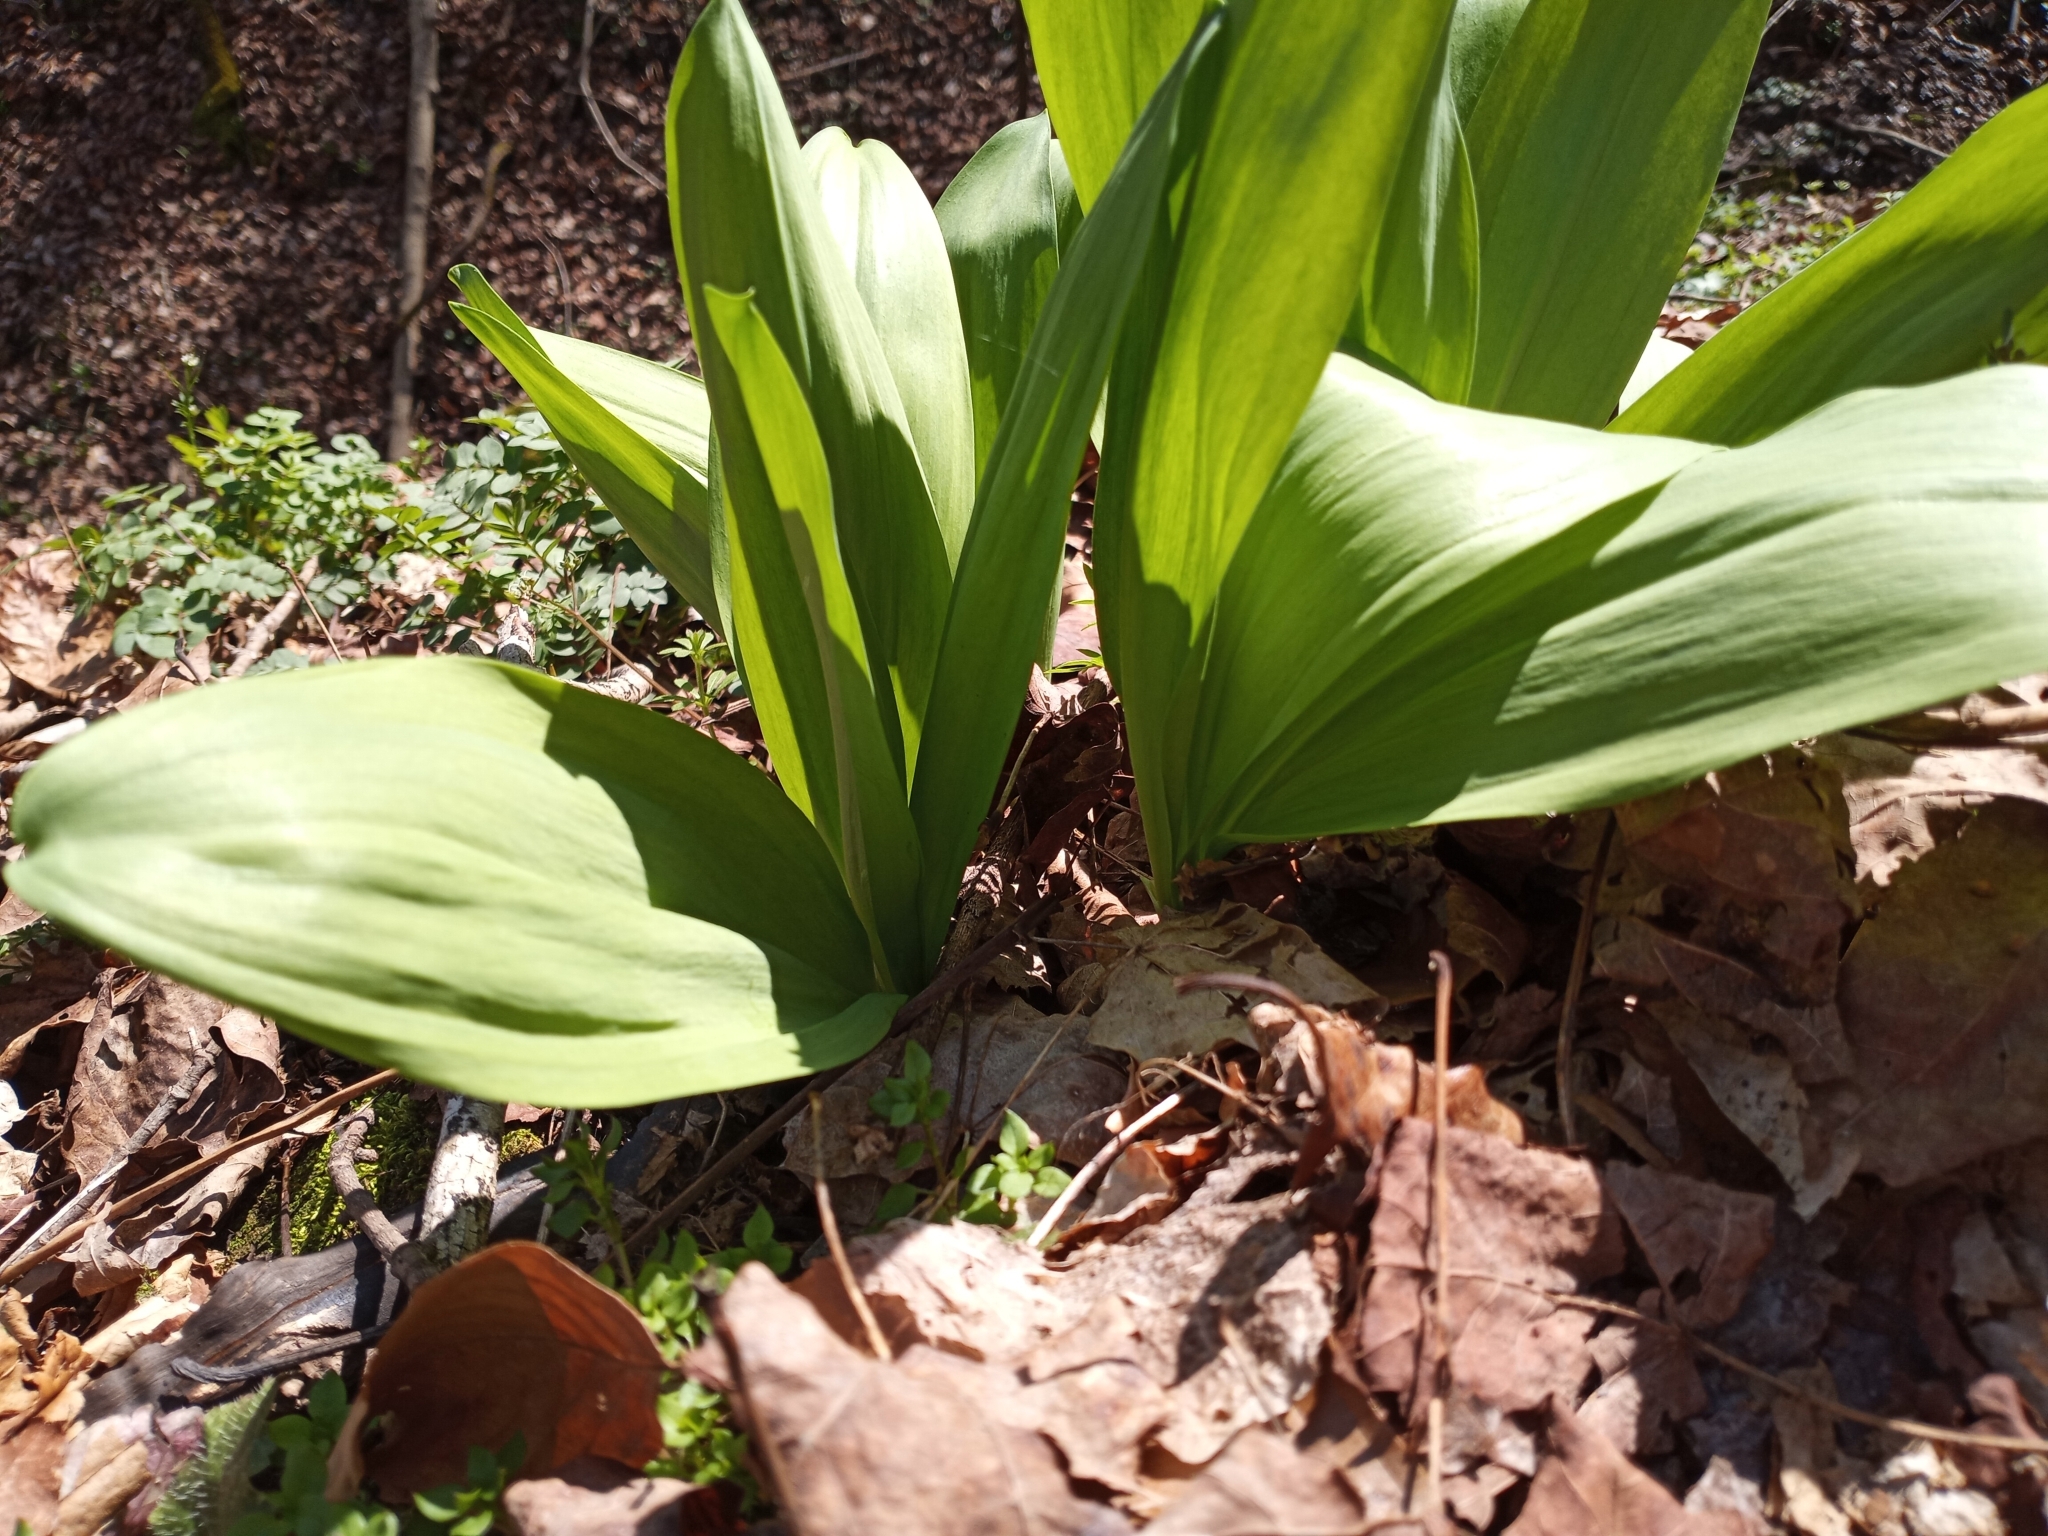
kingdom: Plantae
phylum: Tracheophyta
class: Liliopsida
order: Asparagales
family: Amaryllidaceae
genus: Allium
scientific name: Allium tricoccum
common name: Ramp
